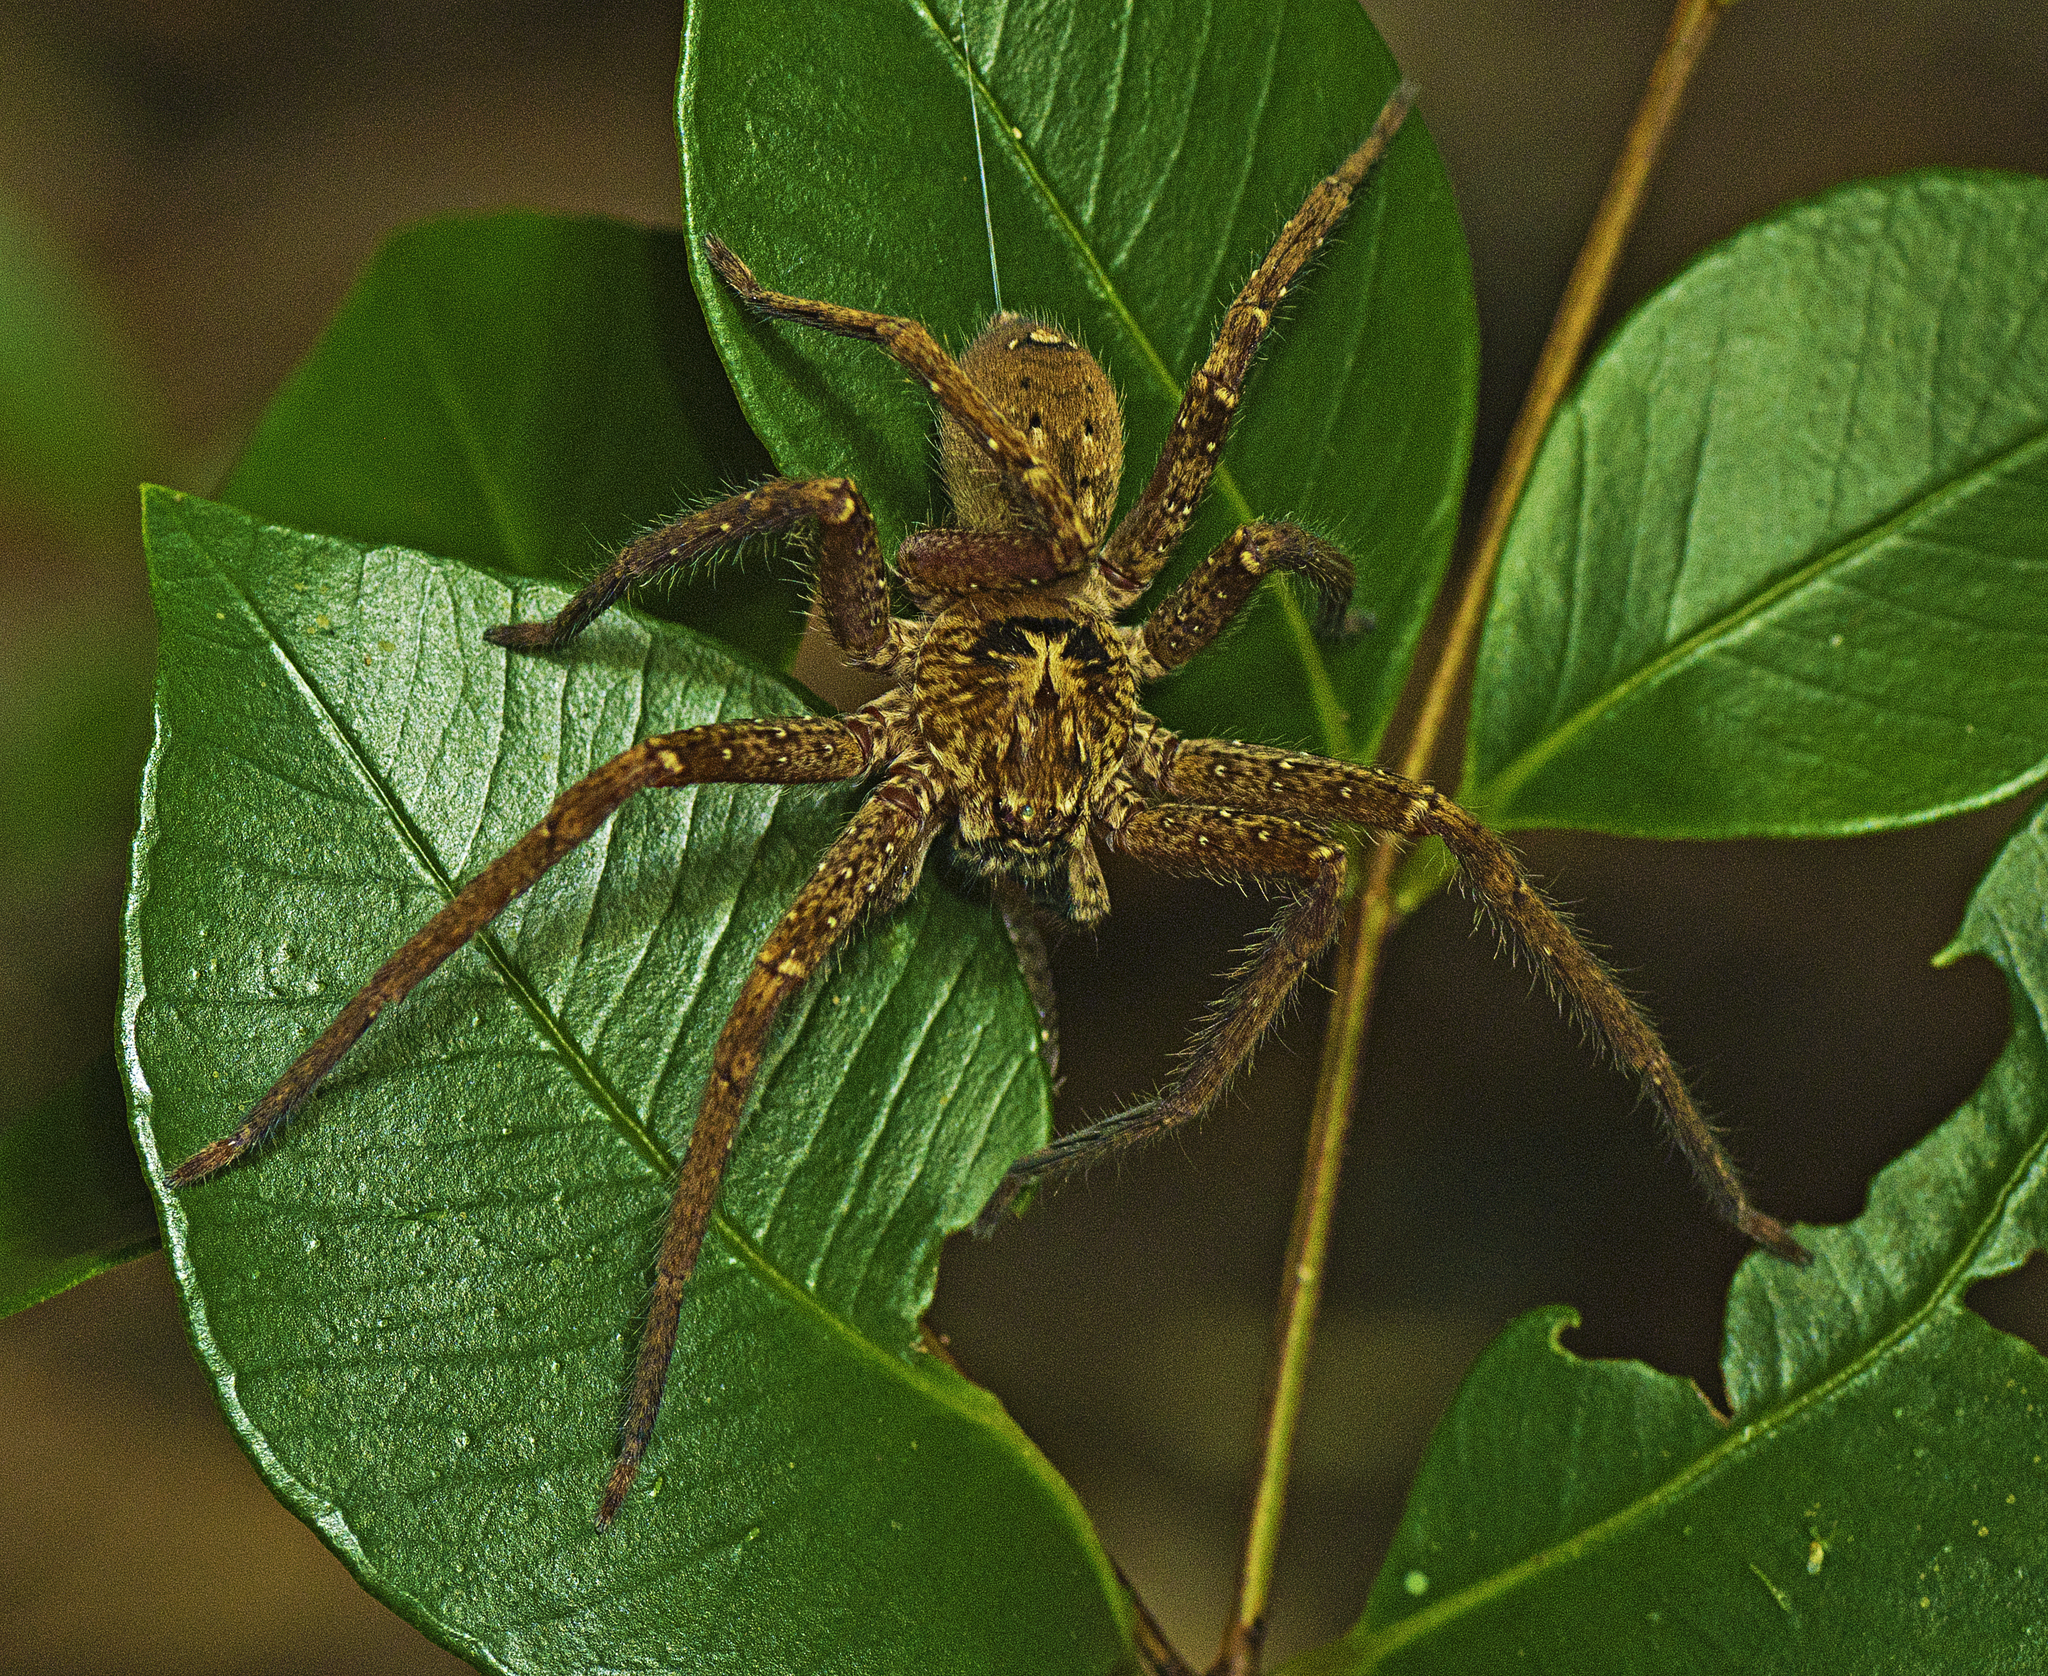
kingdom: Animalia
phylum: Arthropoda
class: Arachnida
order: Araneae
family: Sparassidae
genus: Heteropoda
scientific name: Heteropoda cooloola
